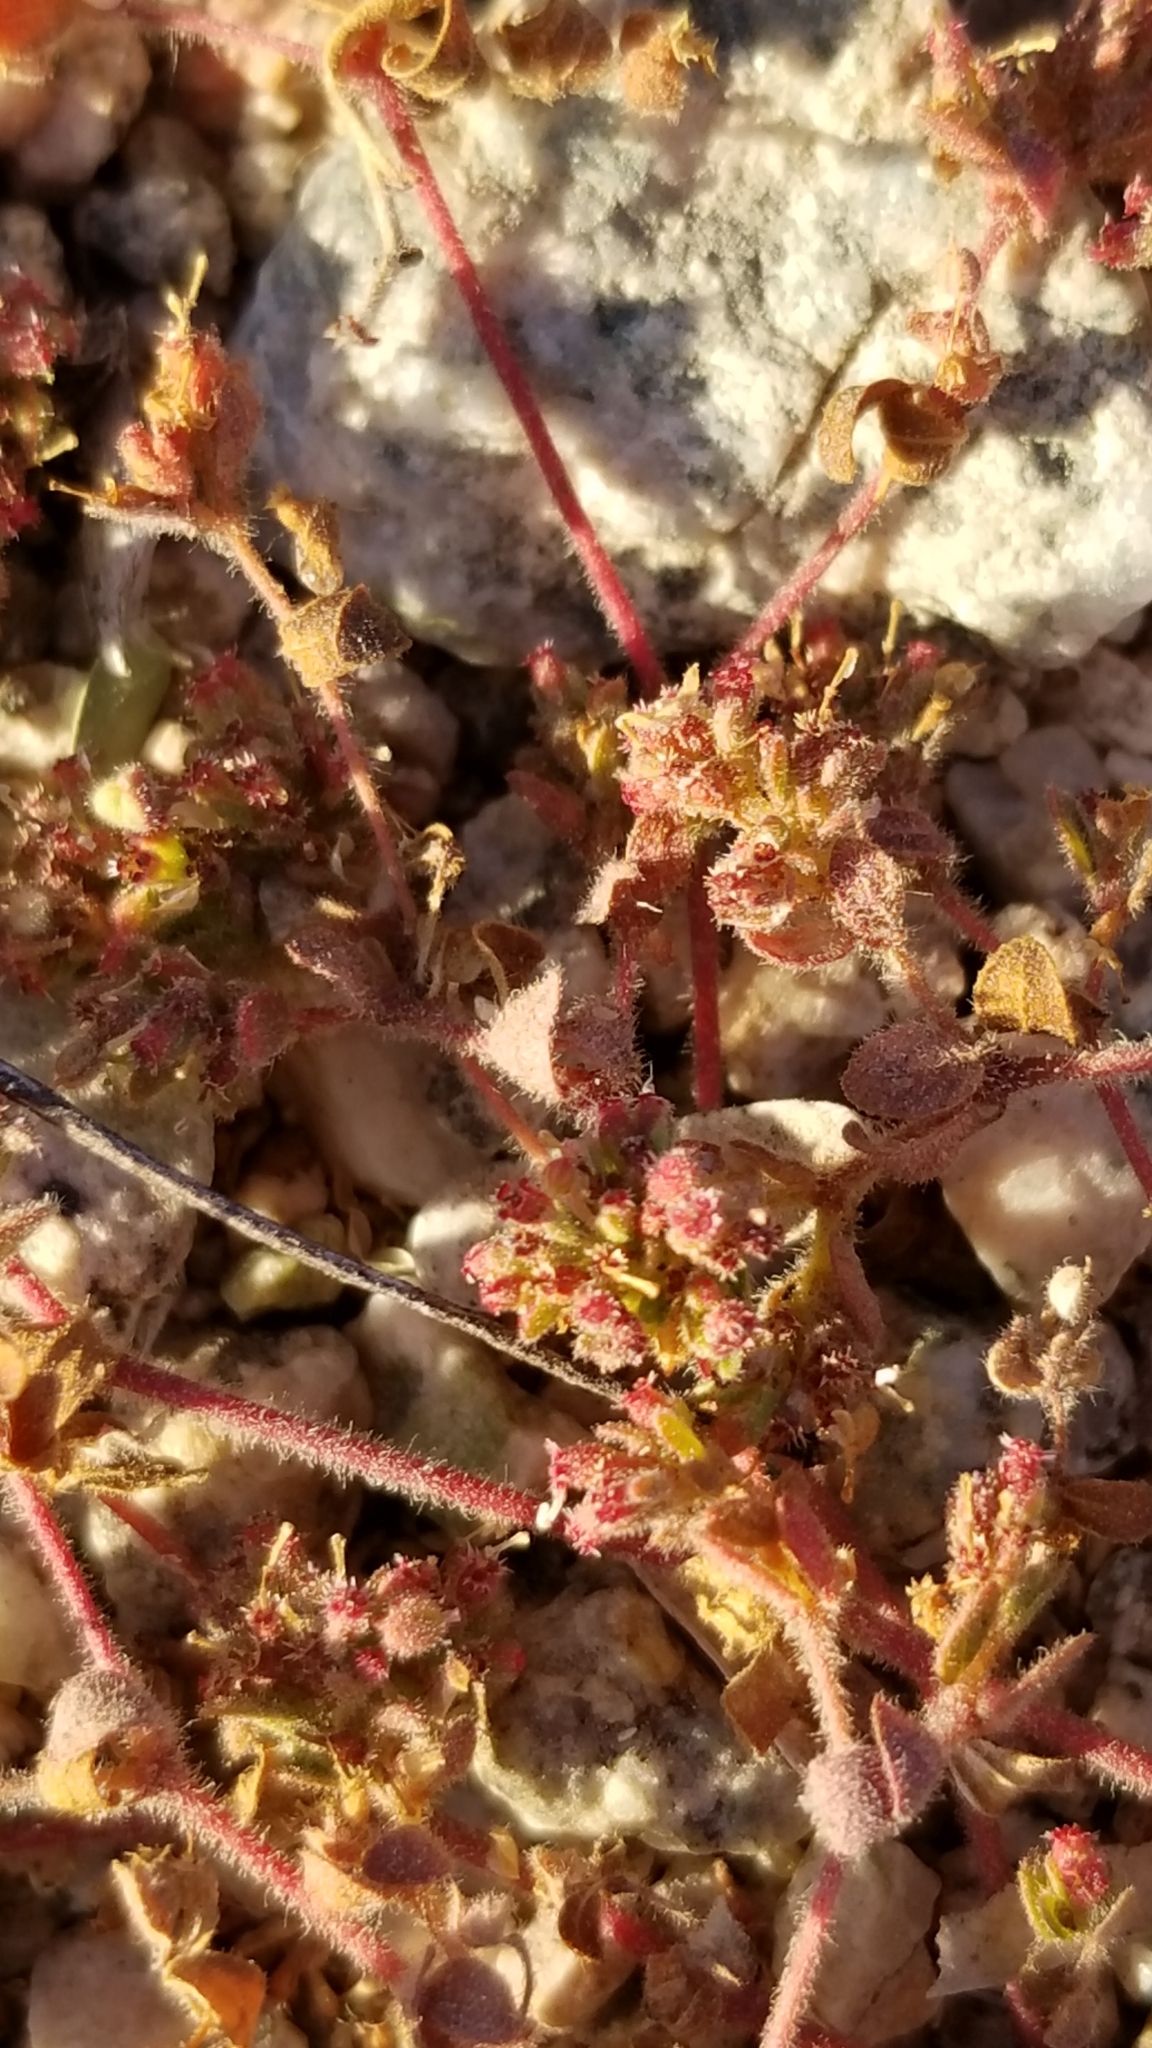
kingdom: Plantae
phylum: Tracheophyta
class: Magnoliopsida
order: Malpighiales
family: Euphorbiaceae
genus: Euphorbia
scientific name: Euphorbia setiloba
